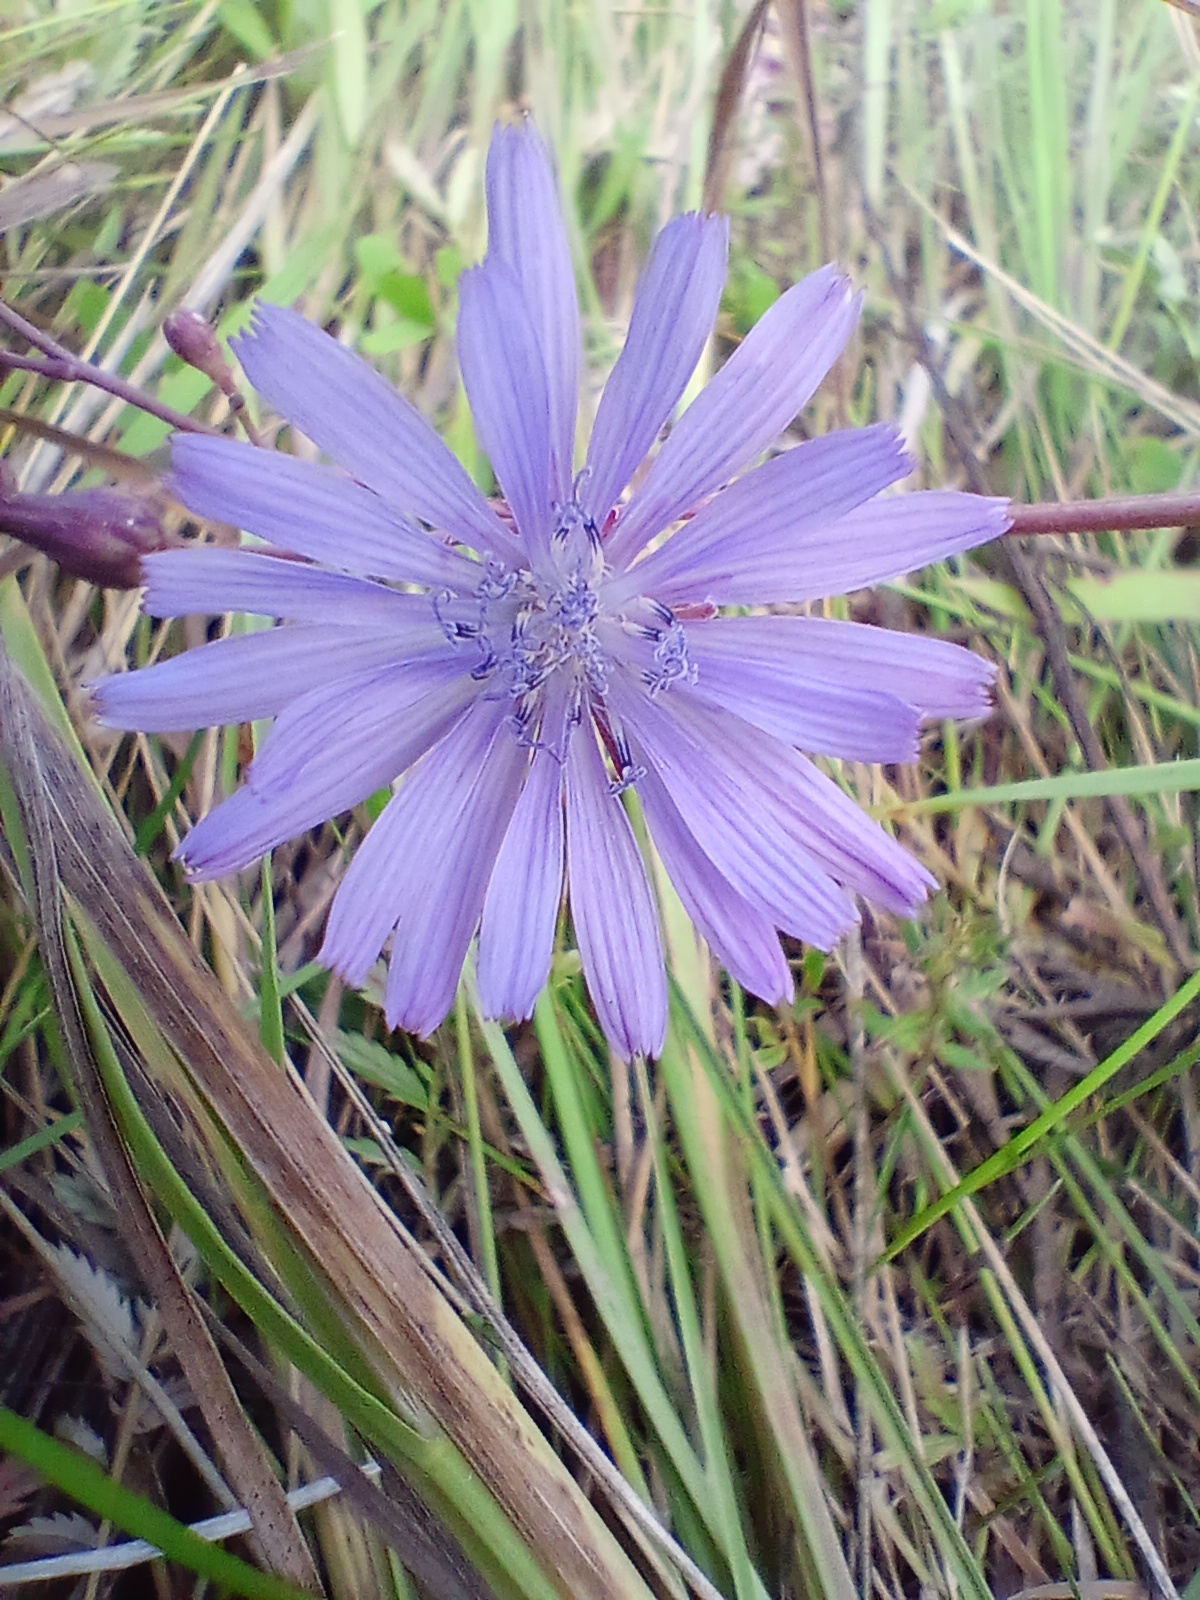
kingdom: Plantae
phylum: Tracheophyta
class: Magnoliopsida
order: Asterales
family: Asteraceae
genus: Lactuca
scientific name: Lactuca sibirica
